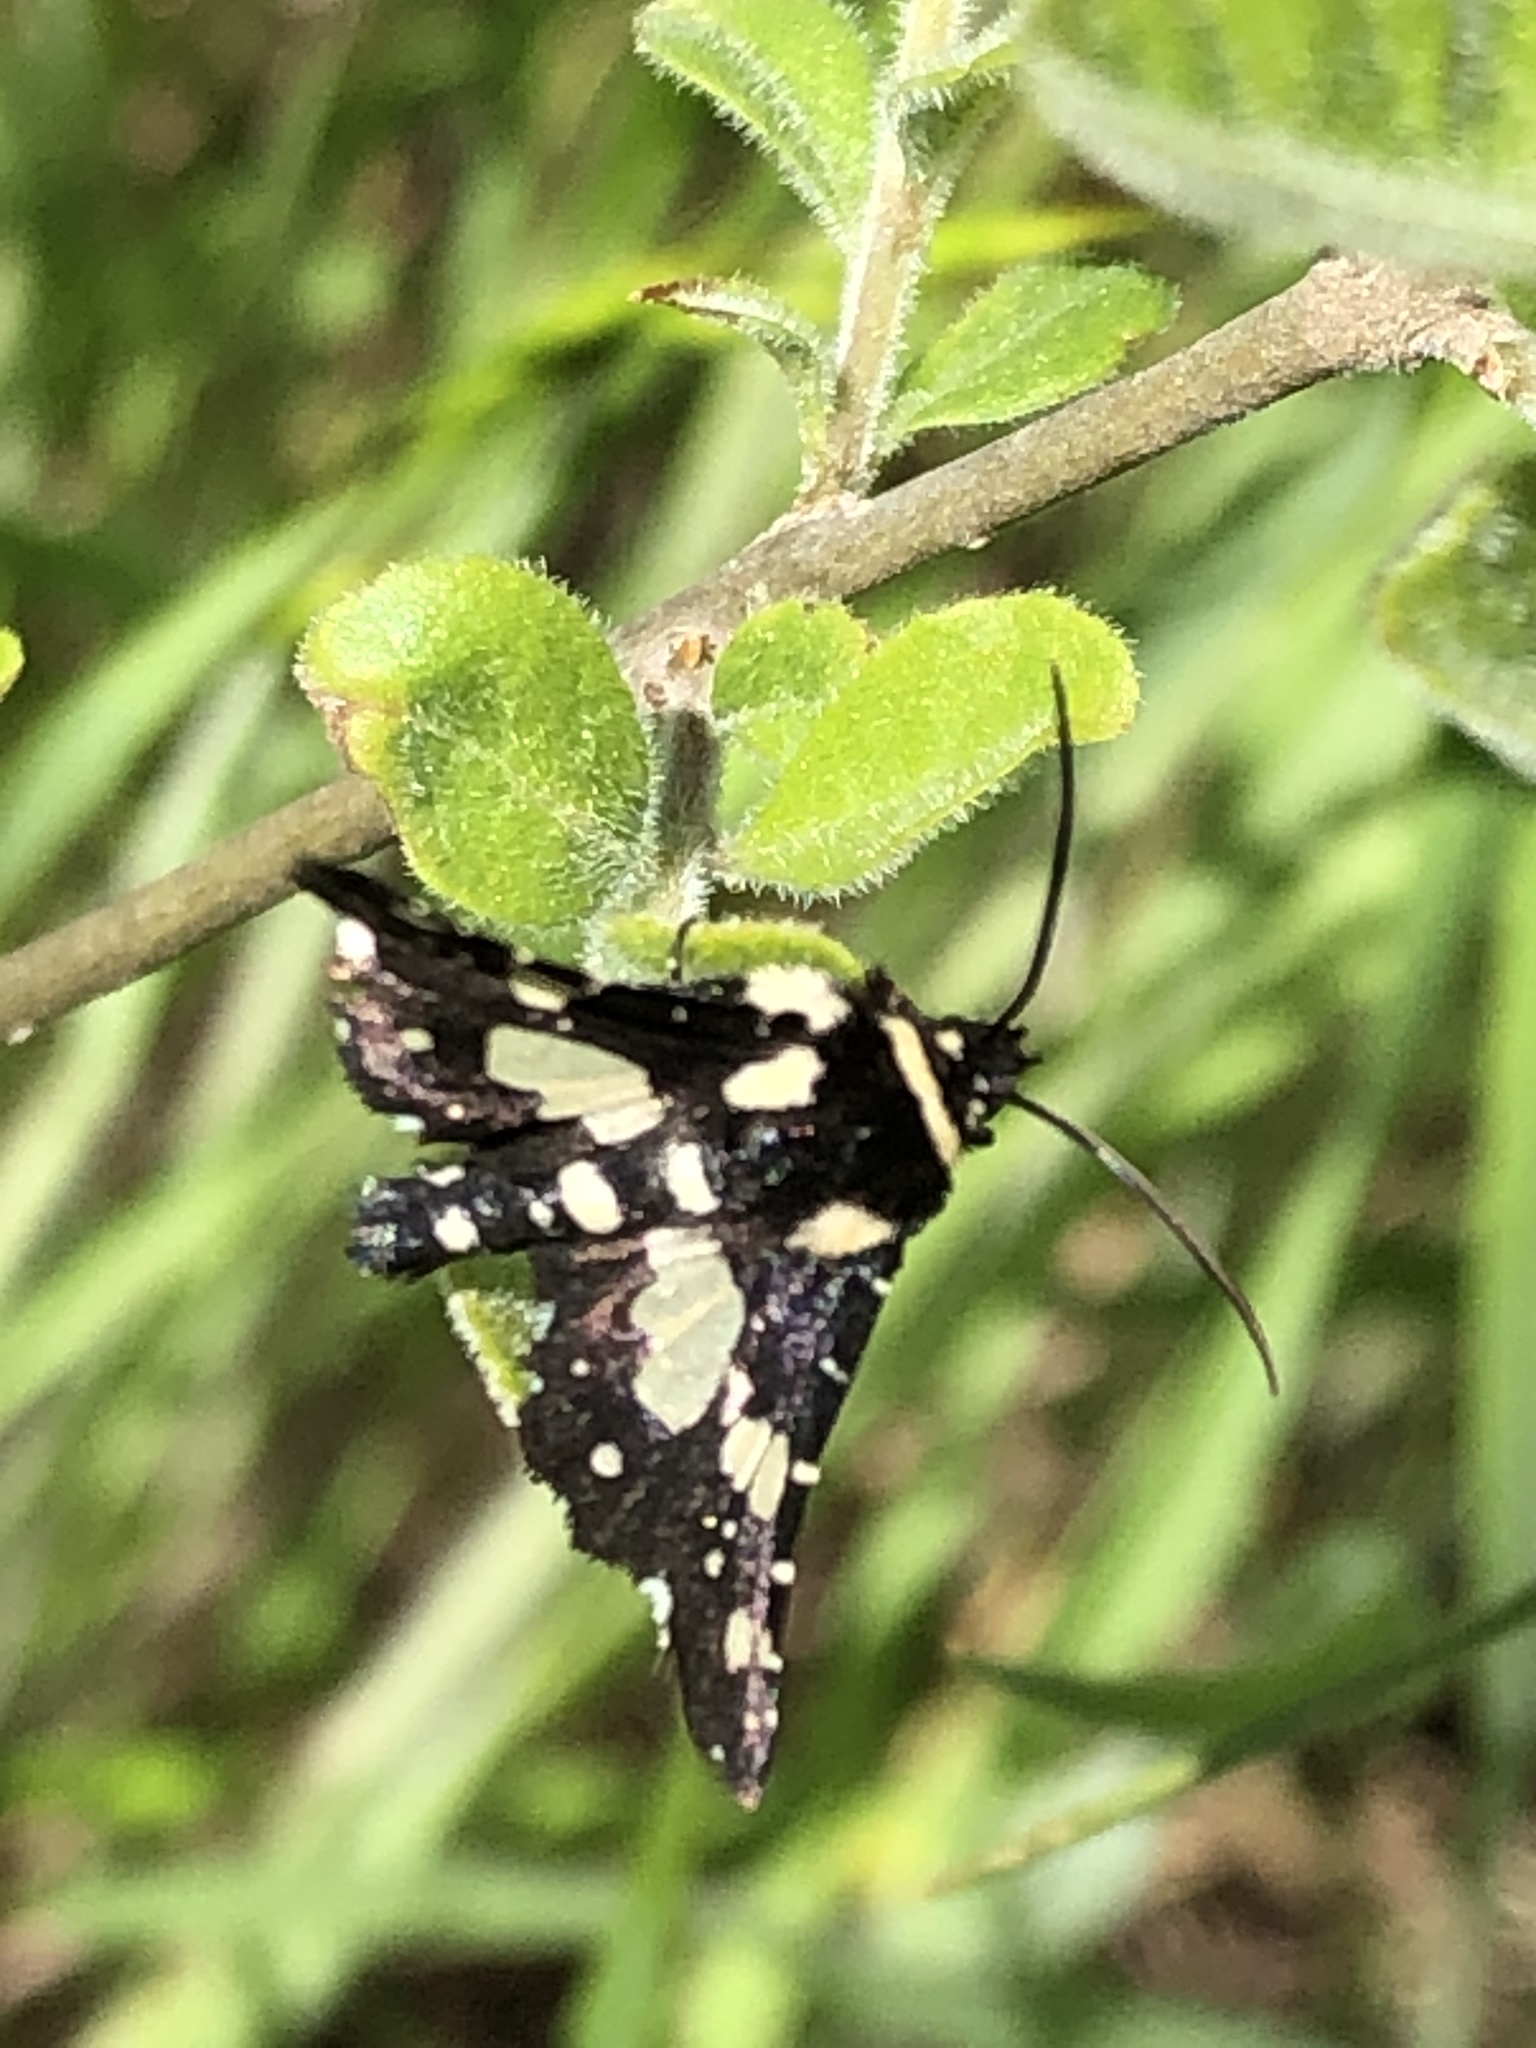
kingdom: Animalia
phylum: Arthropoda
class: Insecta
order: Lepidoptera
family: Thyrididae
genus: Pseudothyris
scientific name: Pseudothyris sepulchralis
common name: Mournful thyris moth
